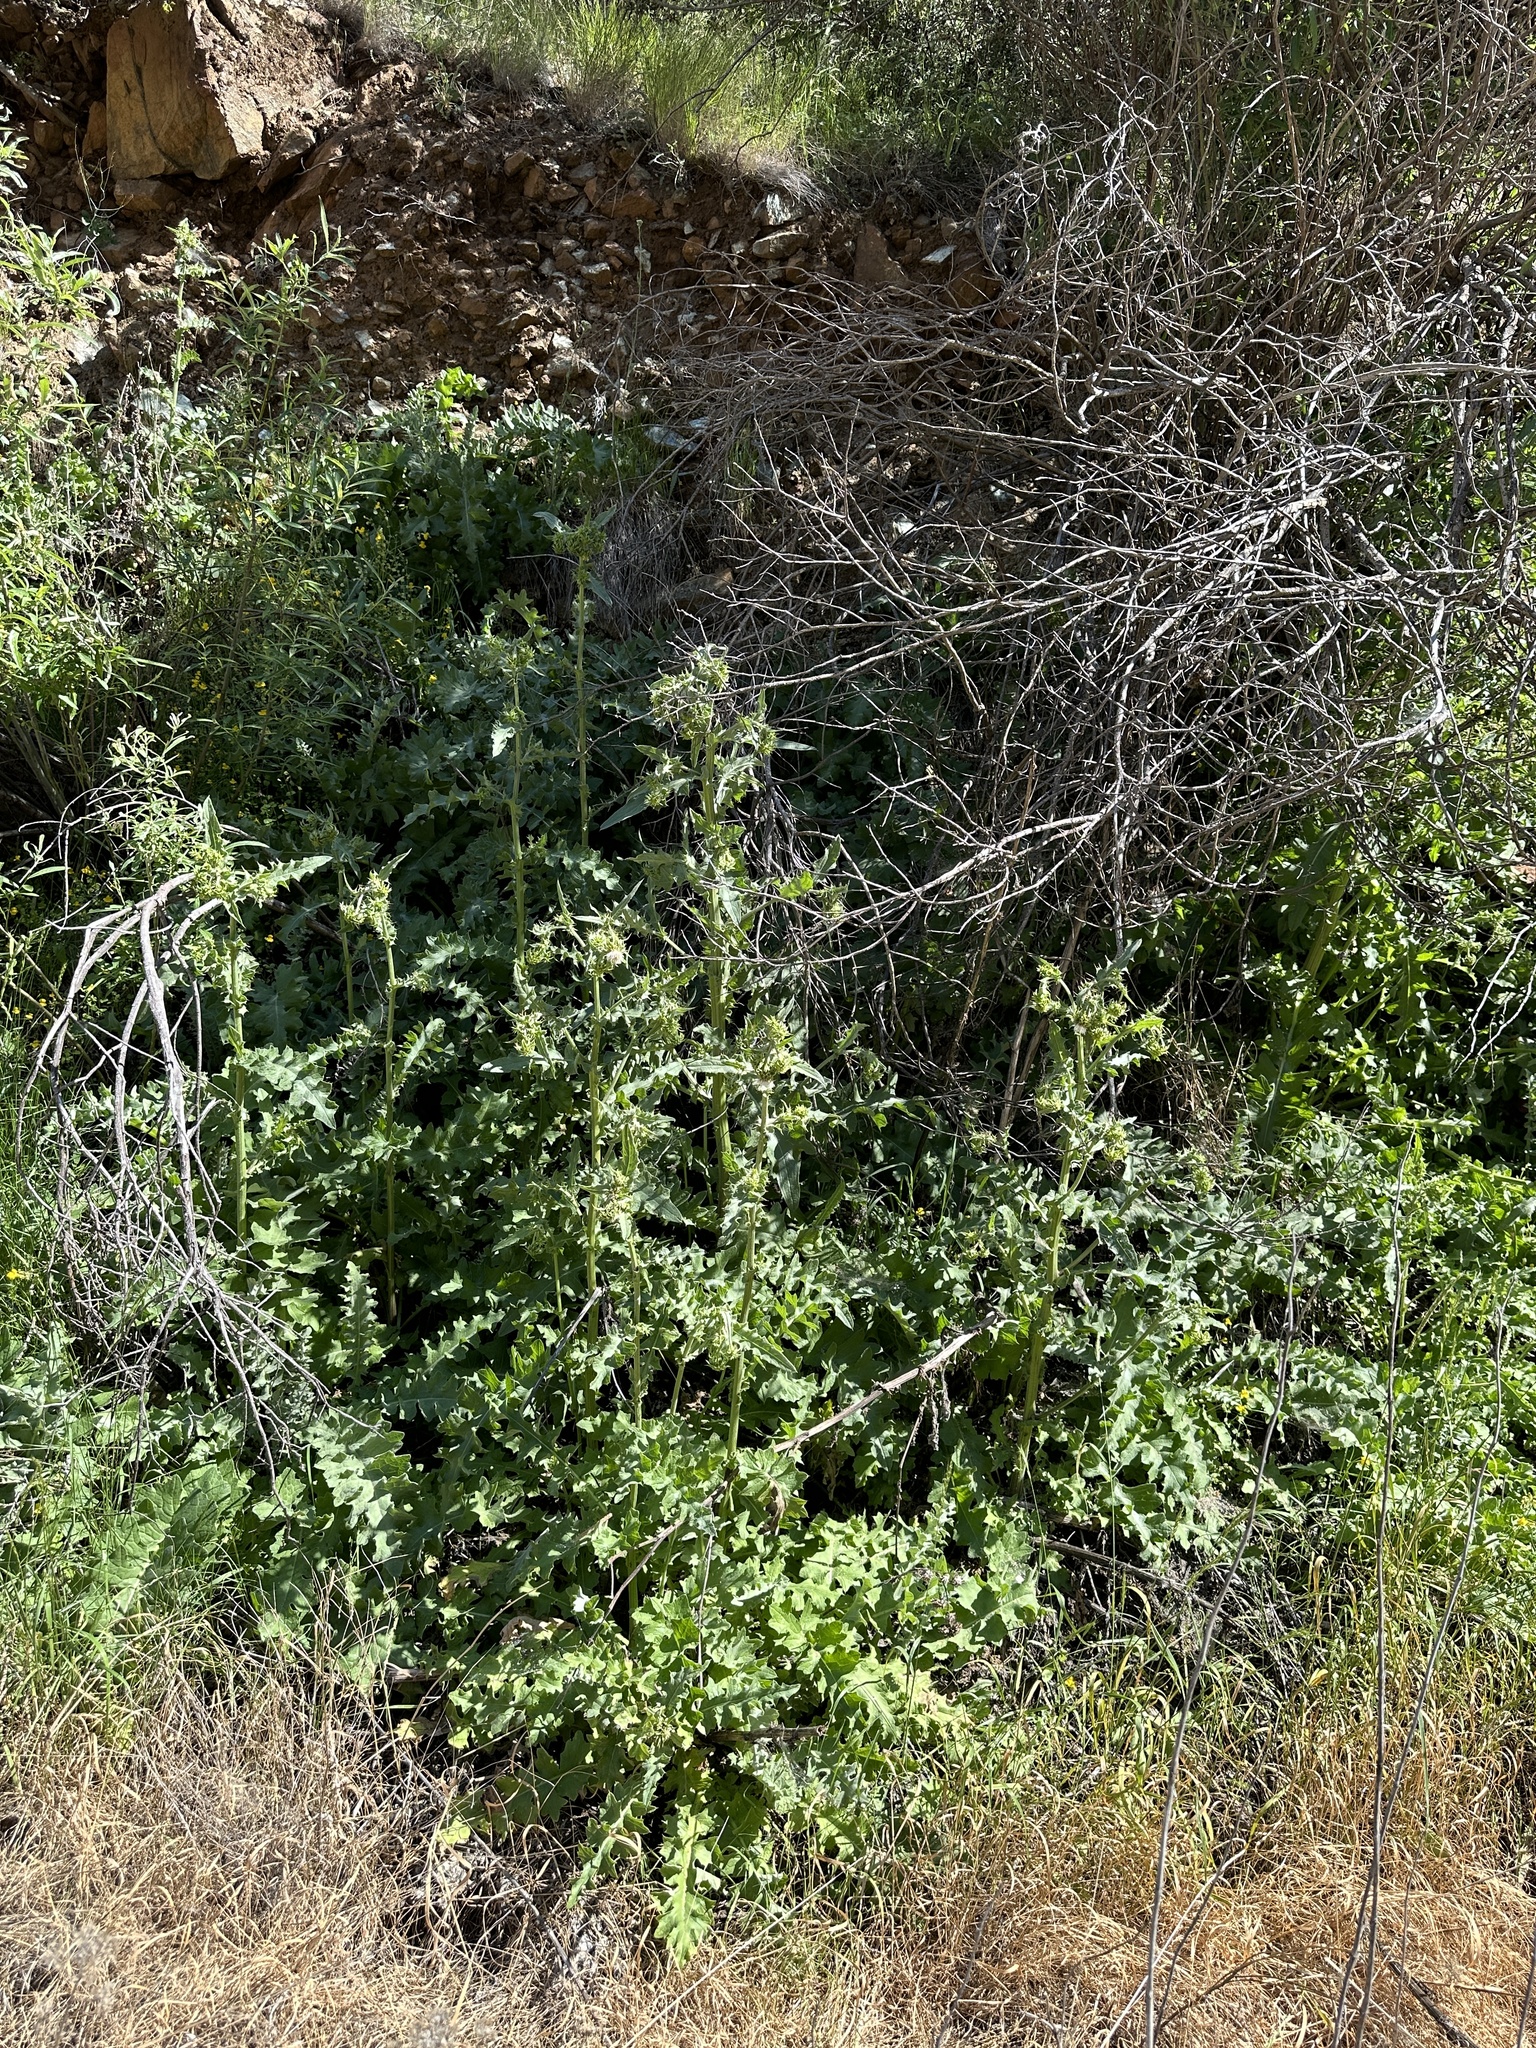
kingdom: Plantae
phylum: Tracheophyta
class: Magnoliopsida
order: Asterales
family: Asteraceae
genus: Cirsium
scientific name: Cirsium fontinale
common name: Fountain thistle
